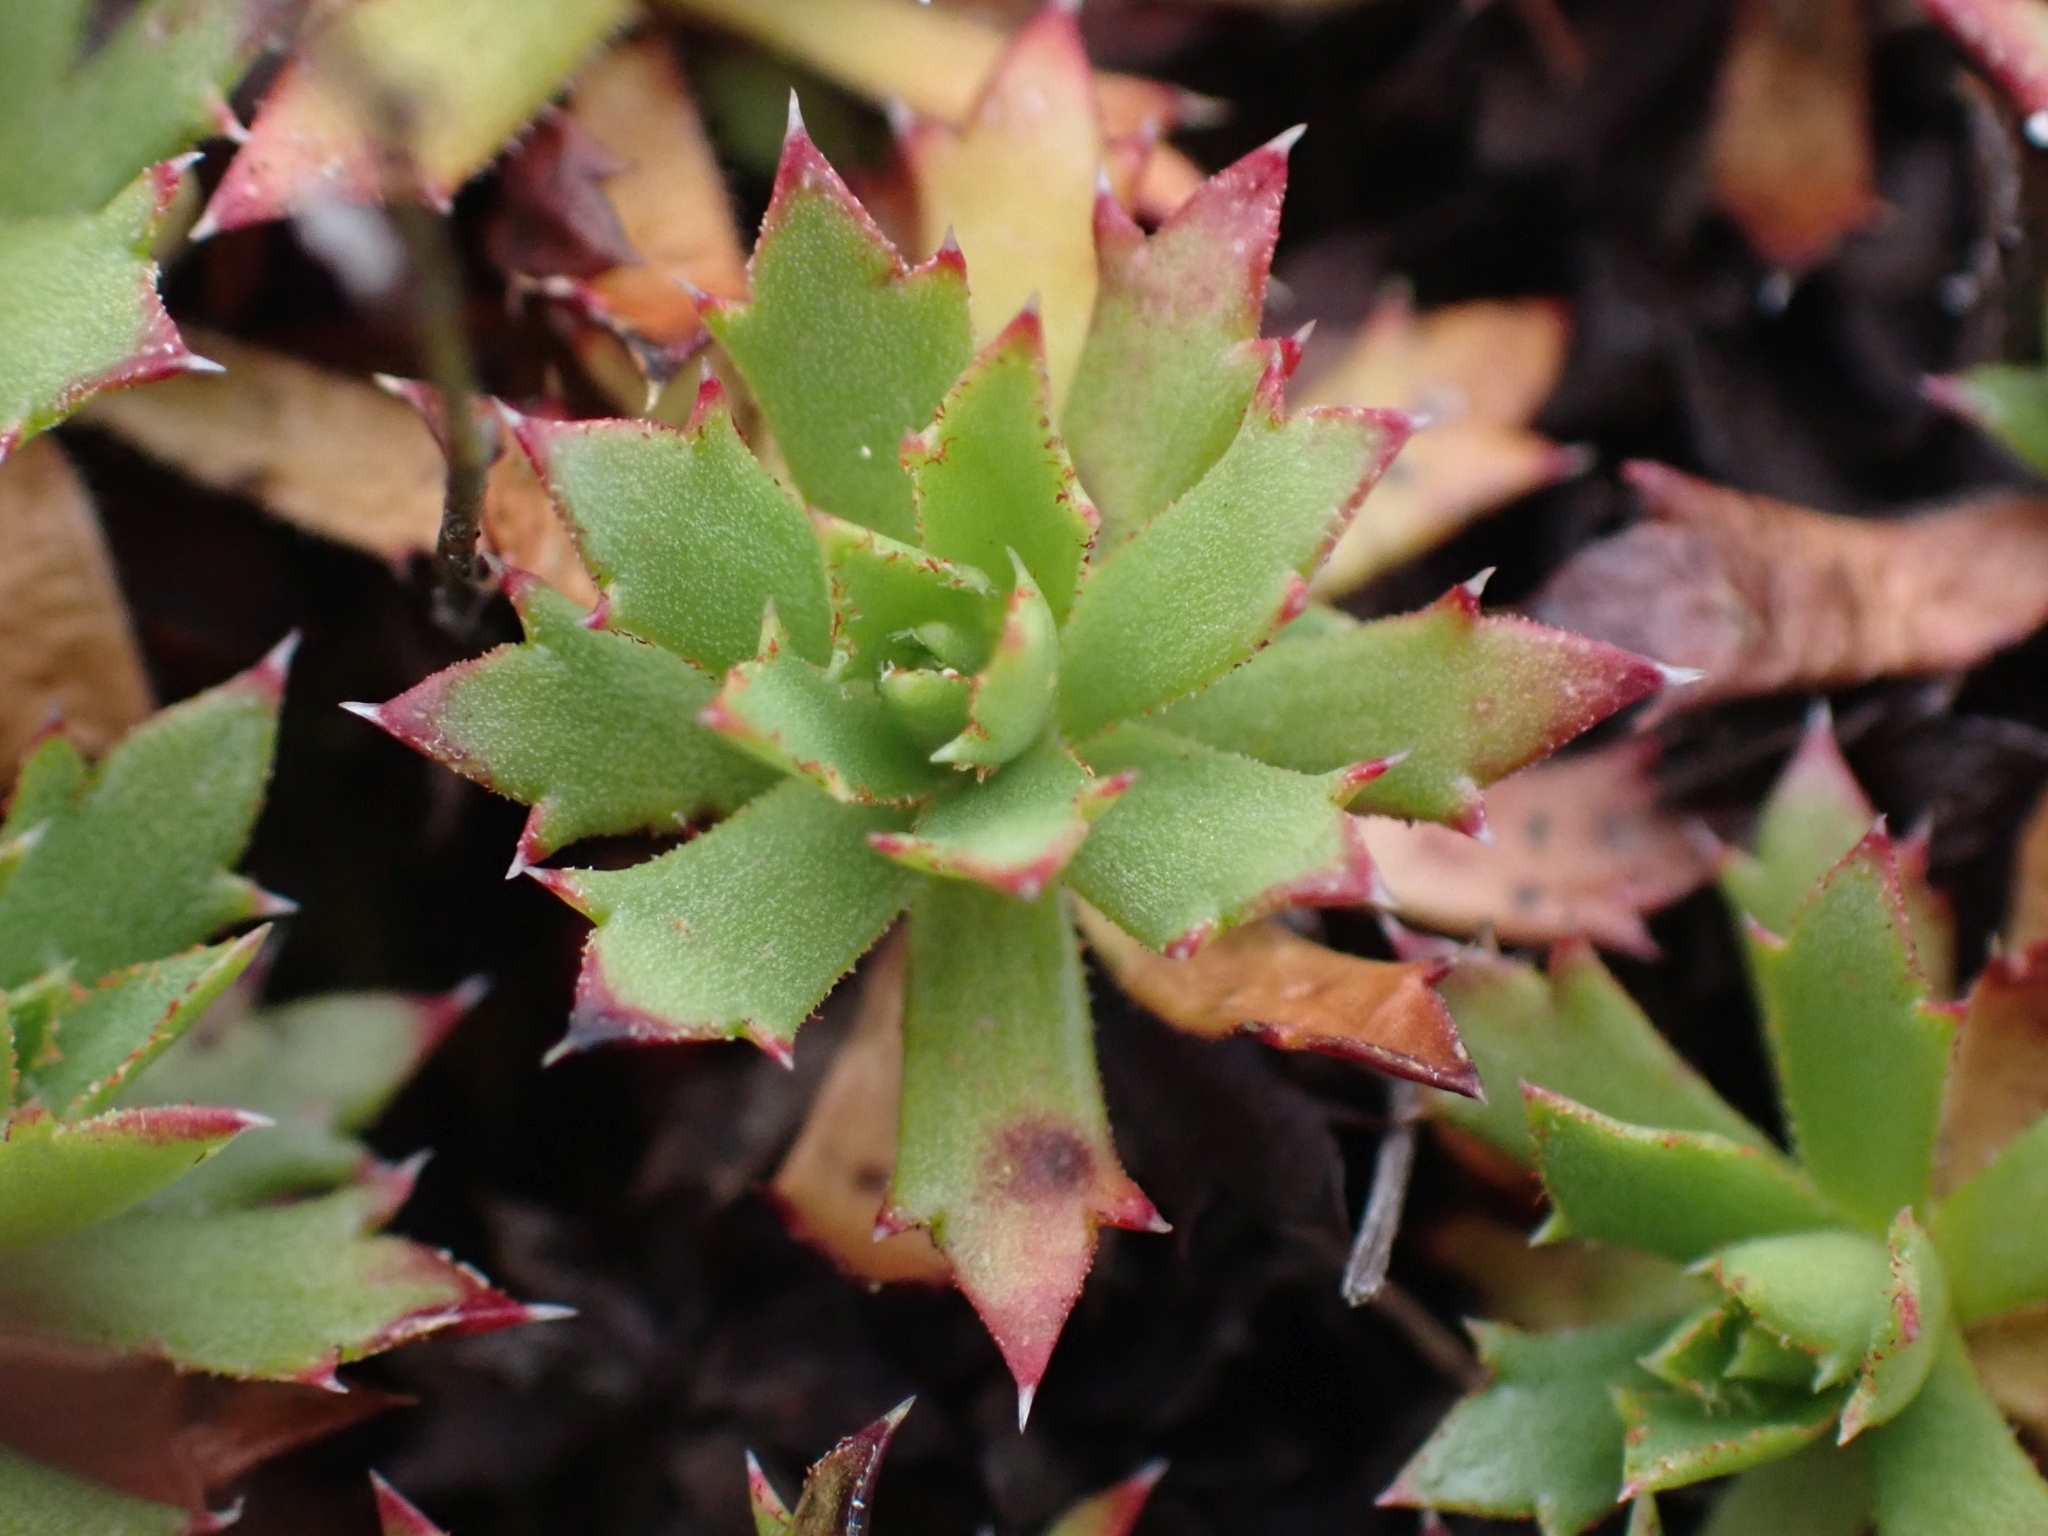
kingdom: Plantae
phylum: Tracheophyta
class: Magnoliopsida
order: Saxifragales
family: Saxifragaceae
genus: Saxifraga
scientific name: Saxifraga tricuspidata
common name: Prickly saxifrage
